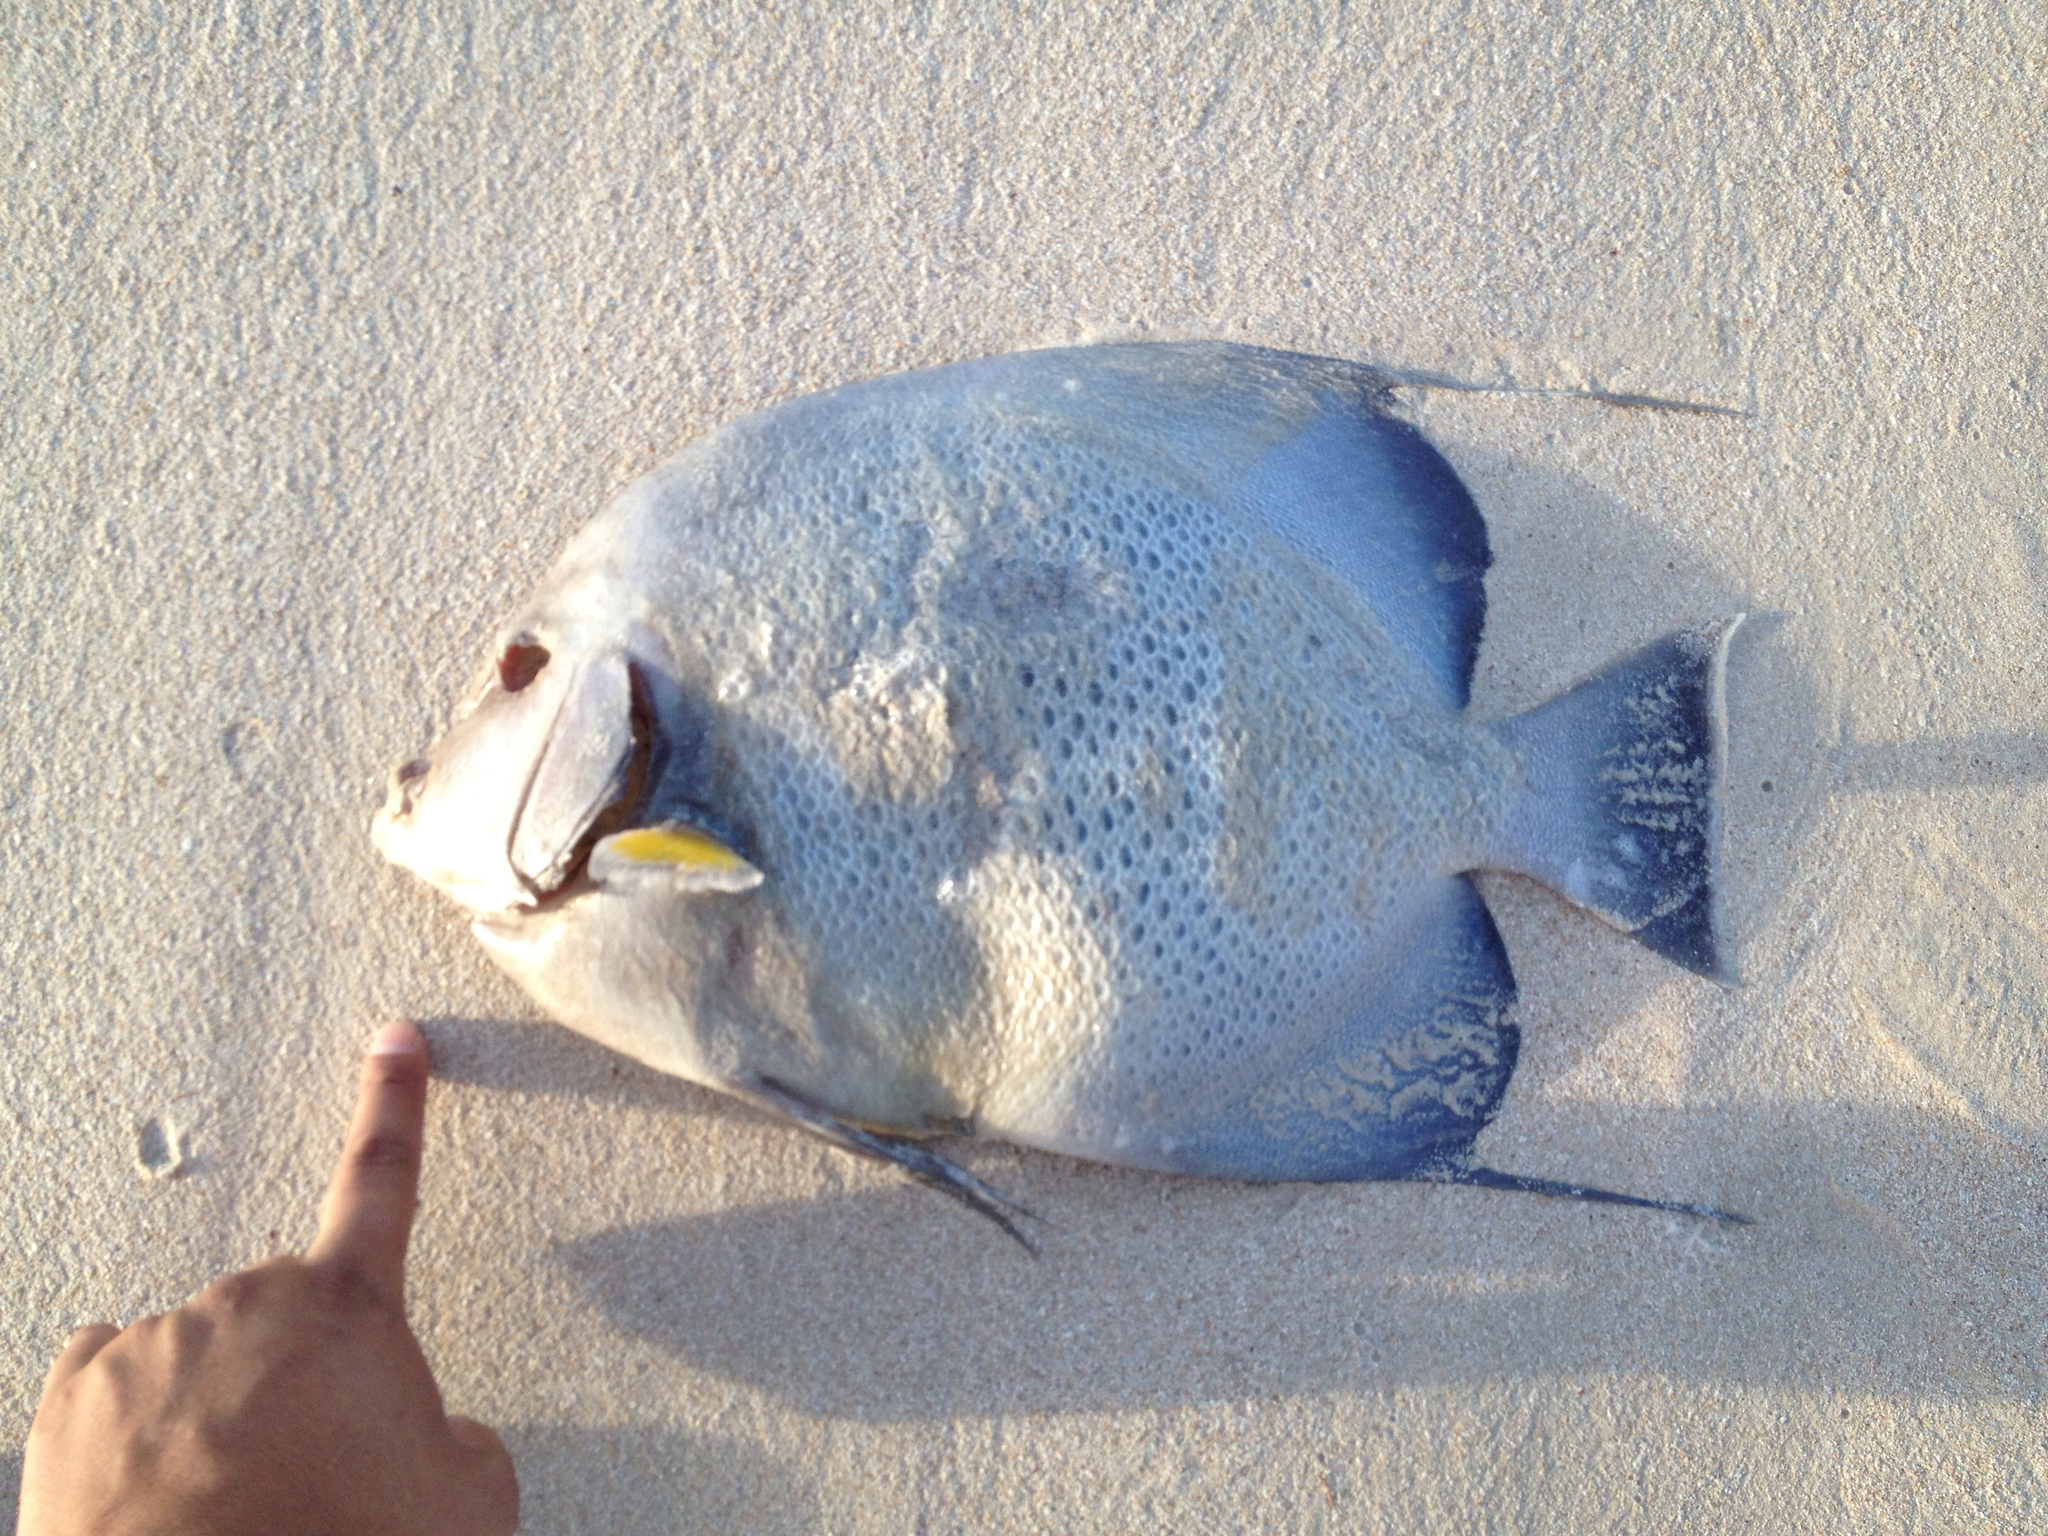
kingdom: Animalia
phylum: Chordata
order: Perciformes
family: Pomacanthidae
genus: Pomacanthus
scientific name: Pomacanthus arcuatus
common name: Gray angelfish
